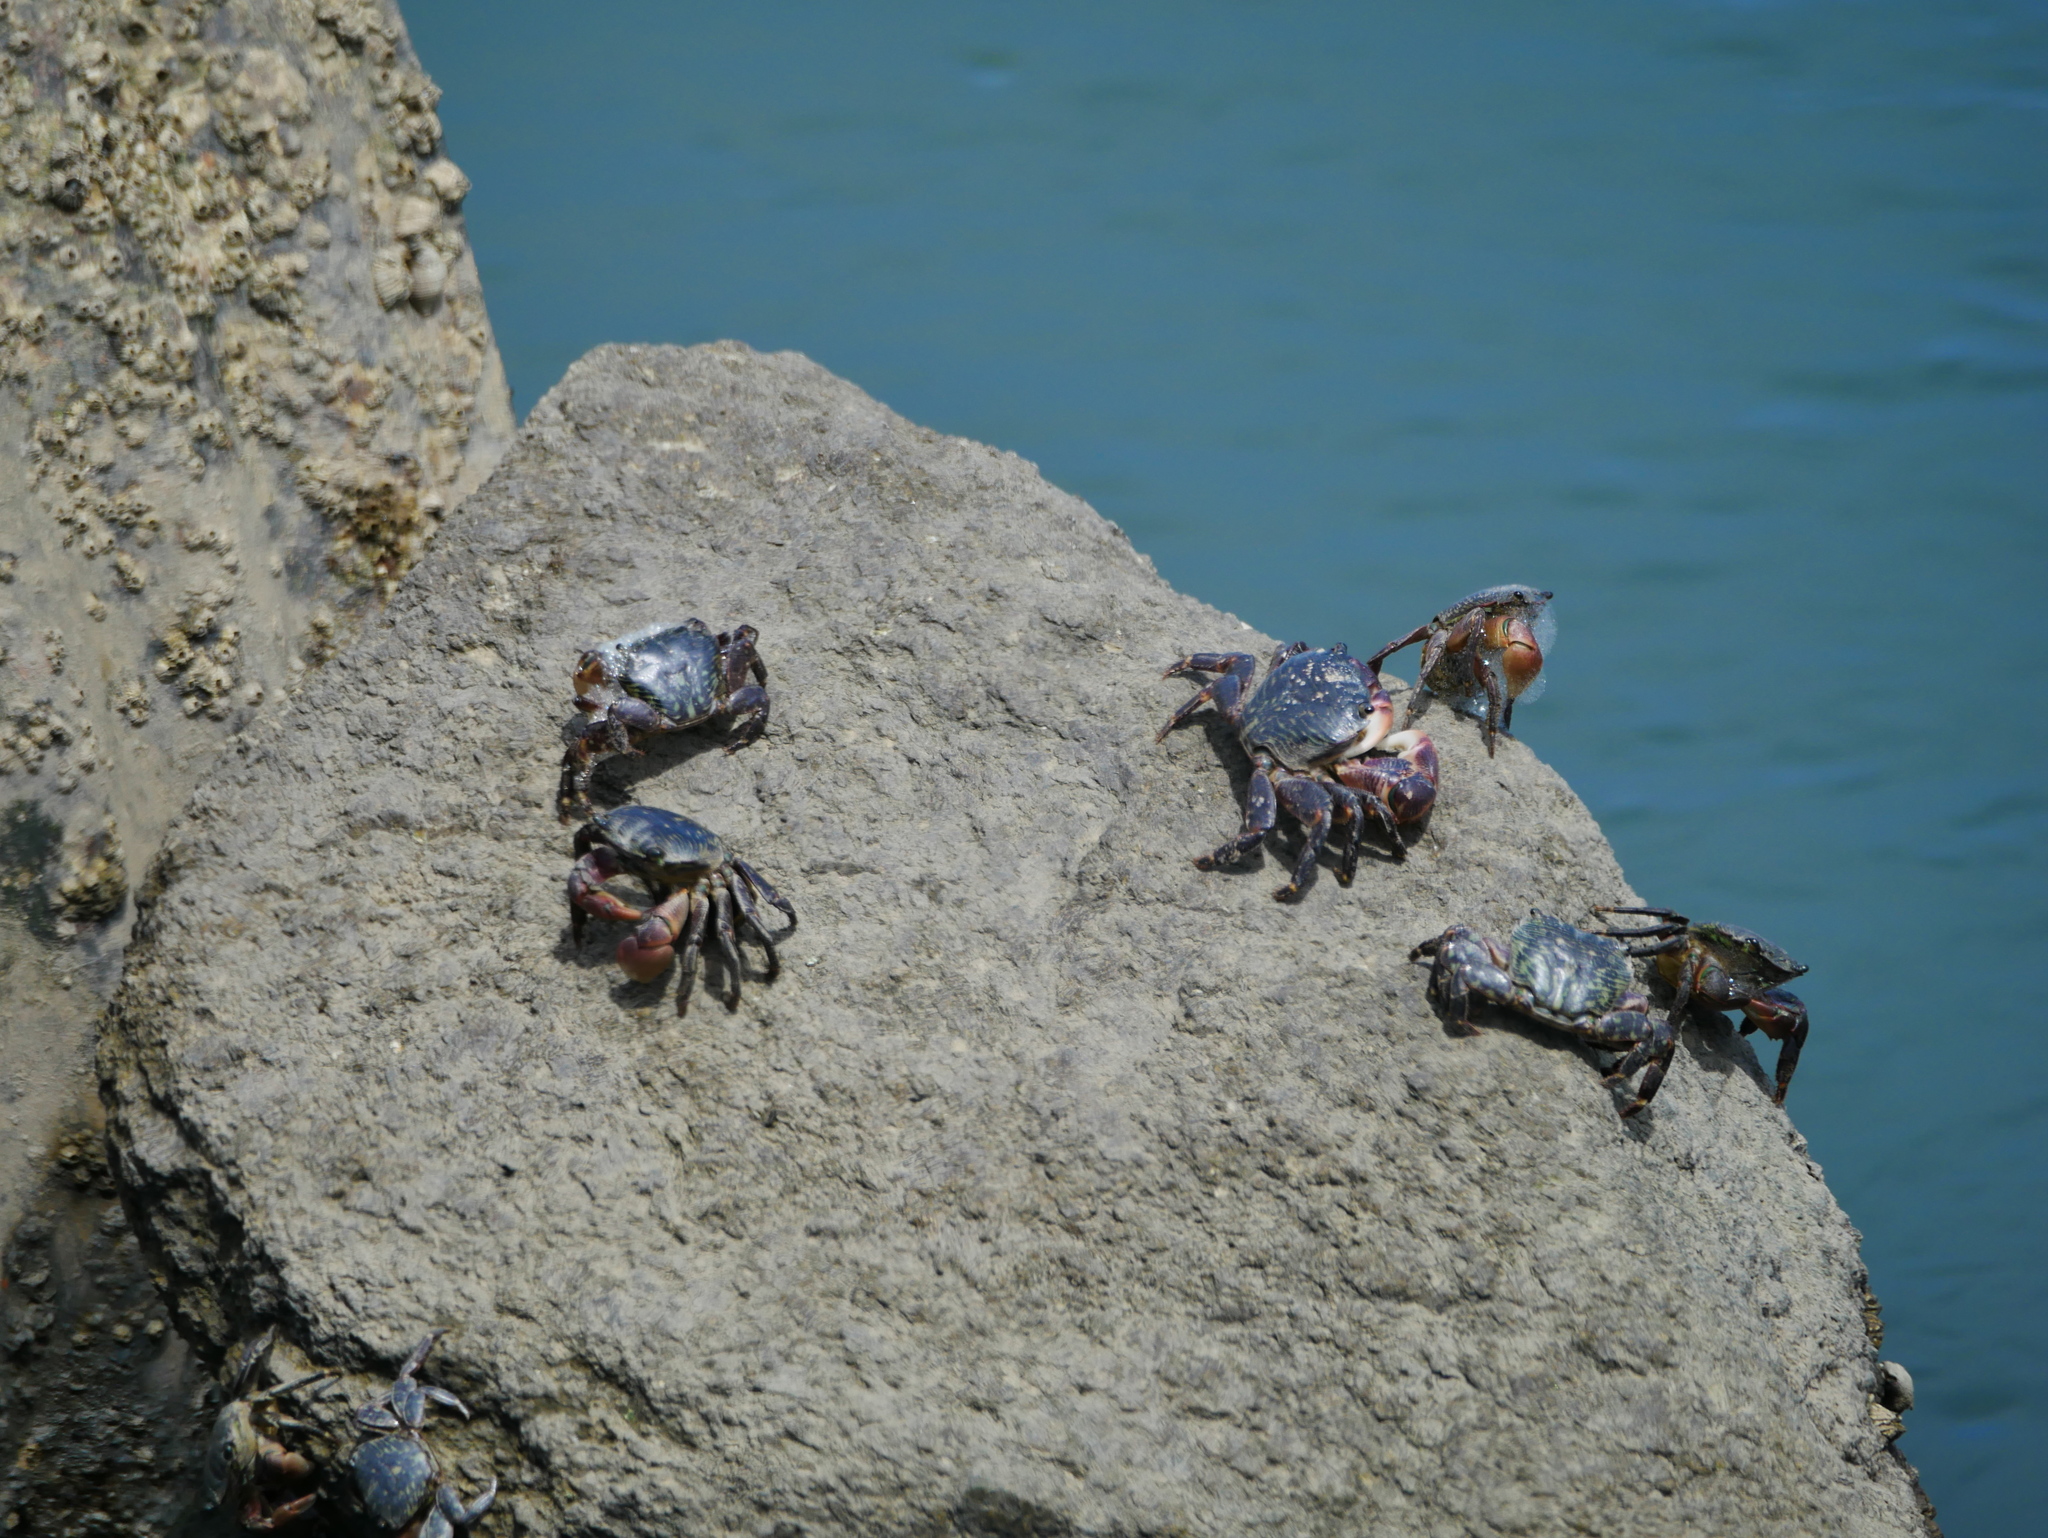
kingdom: Animalia
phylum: Arthropoda
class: Malacostraca
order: Decapoda
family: Grapsidae
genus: Pachygrapsus
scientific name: Pachygrapsus crassipes
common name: Striped shore crab
